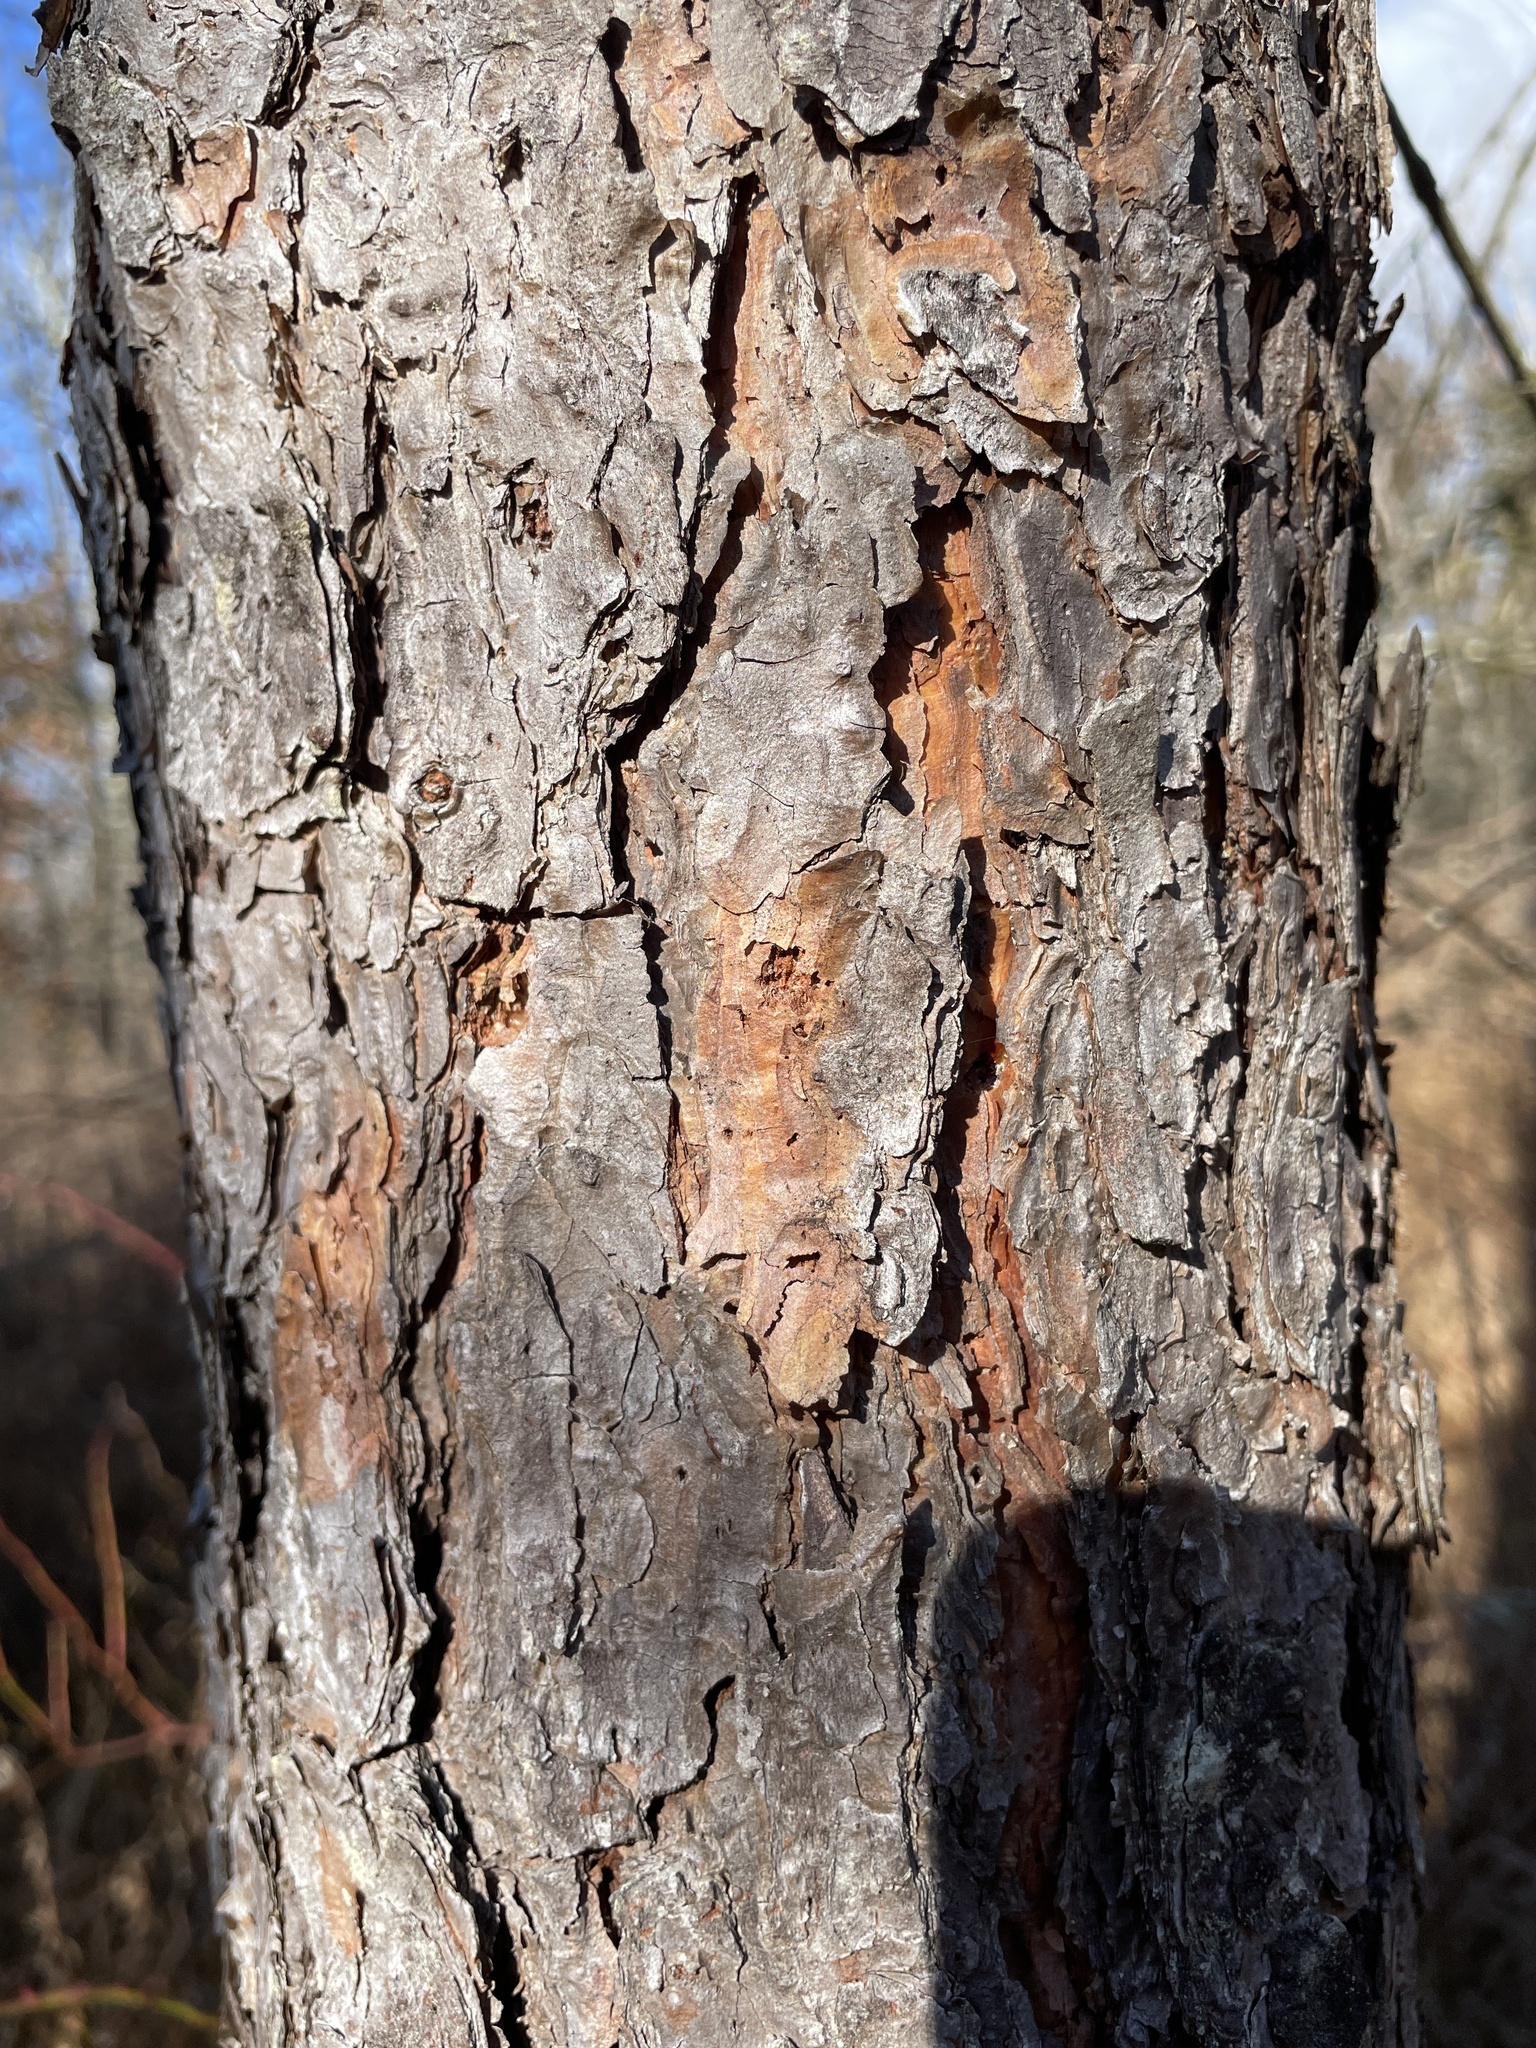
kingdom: Plantae
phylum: Tracheophyta
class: Pinopsida
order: Pinales
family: Pinaceae
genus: Pinus
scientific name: Pinus echinata
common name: Shortleaf pine
